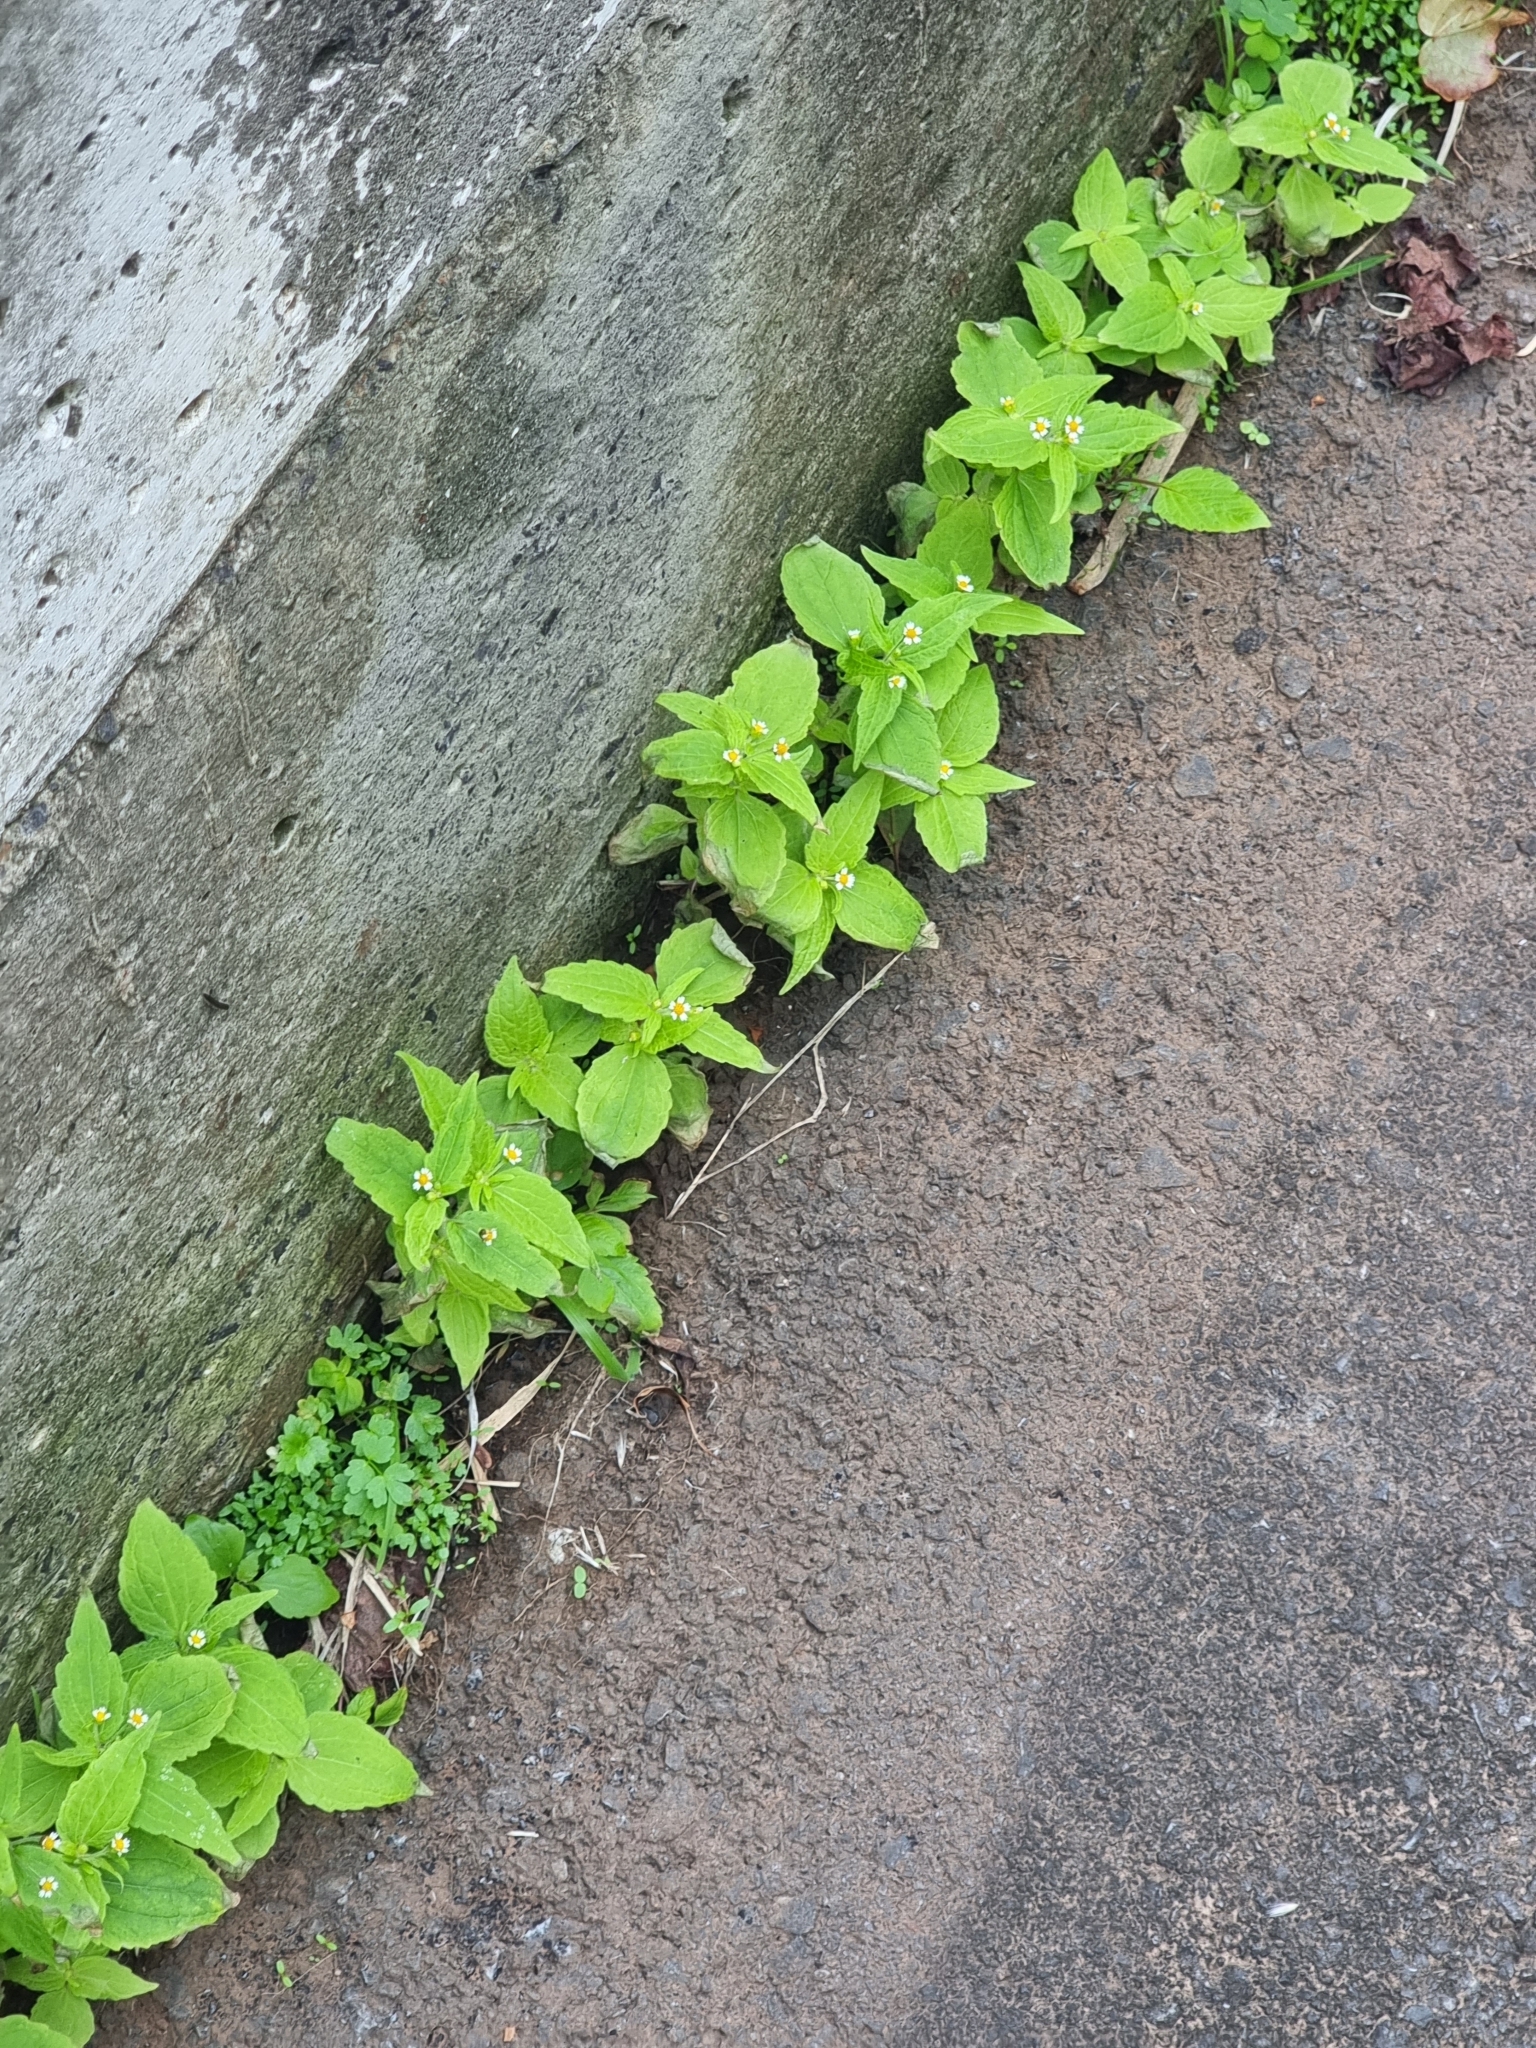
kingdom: Plantae
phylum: Tracheophyta
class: Magnoliopsida
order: Asterales
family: Asteraceae
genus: Galinsoga
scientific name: Galinsoga quadriradiata
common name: Shaggy soldier
